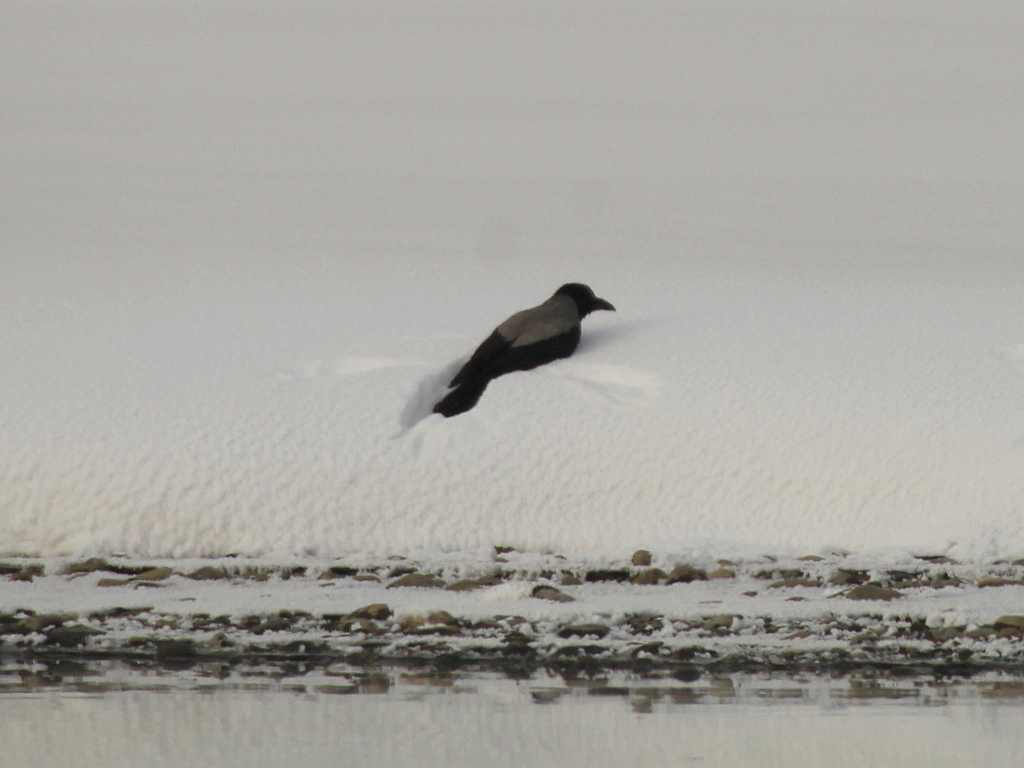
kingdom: Animalia
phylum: Chordata
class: Aves
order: Passeriformes
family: Corvidae
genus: Corvus
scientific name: Corvus cornix
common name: Hooded crow
